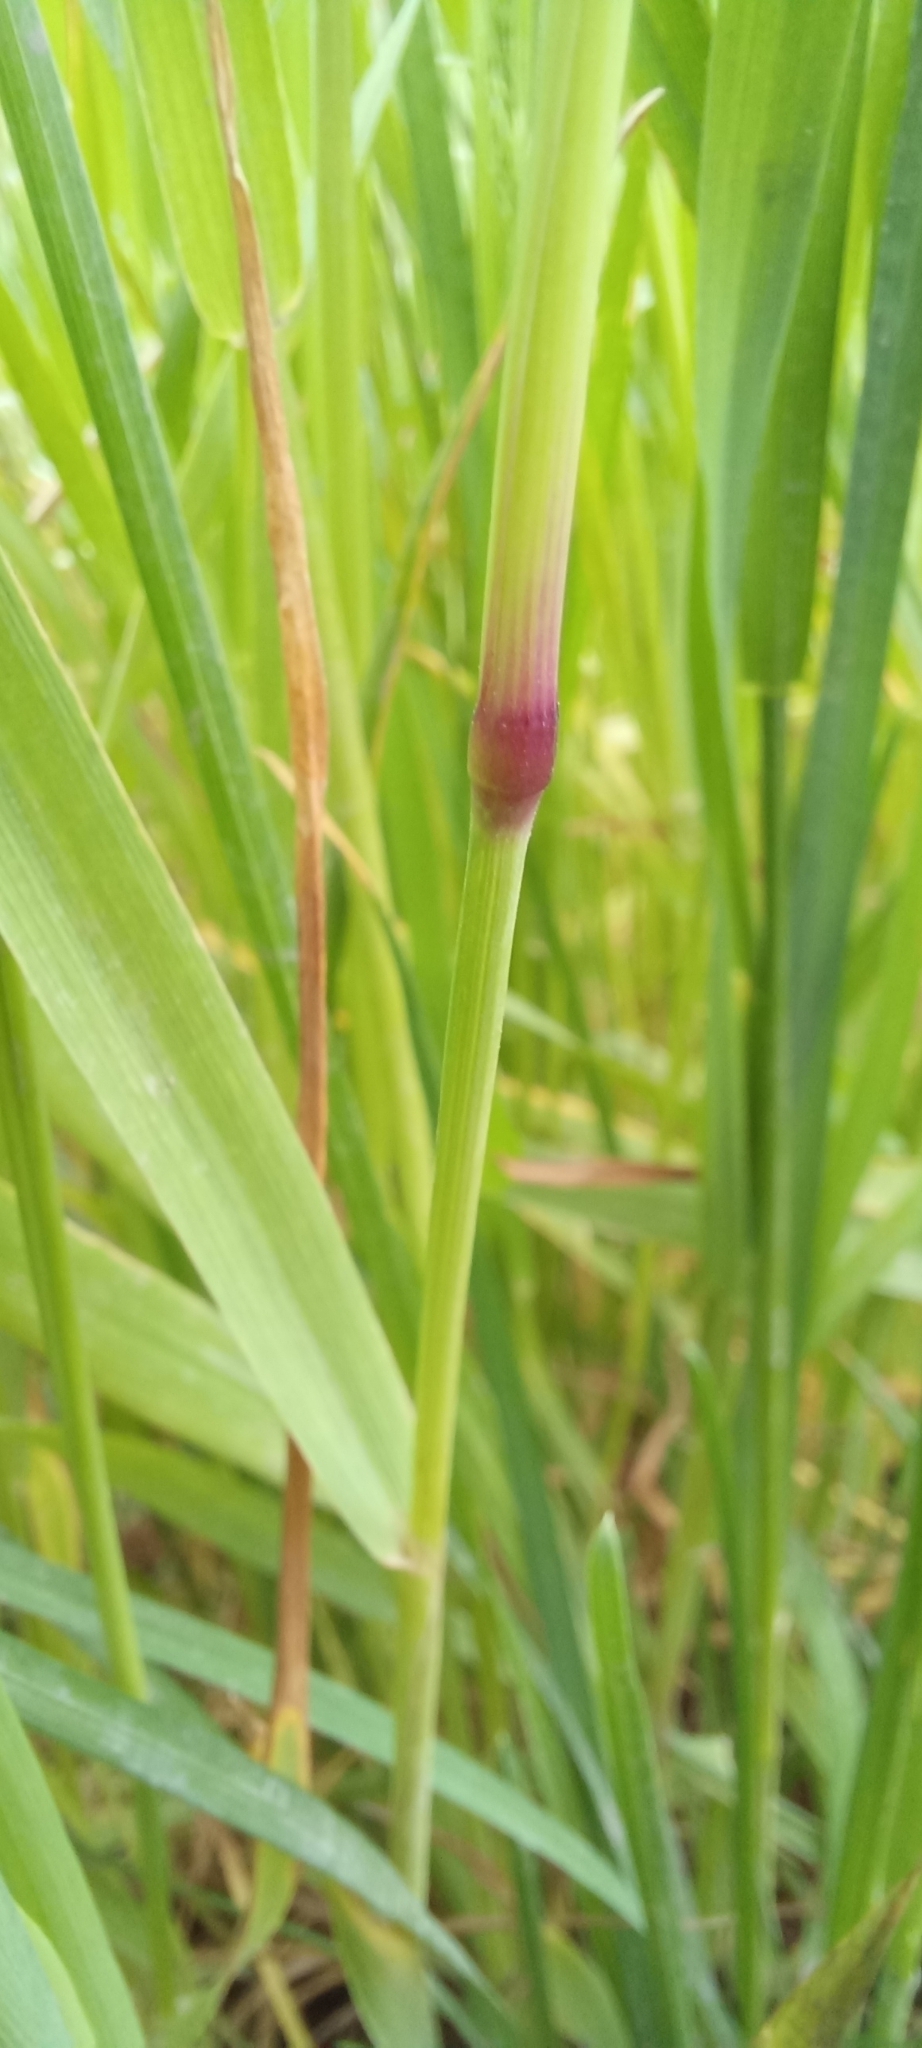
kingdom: Plantae
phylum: Tracheophyta
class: Liliopsida
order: Poales
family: Poaceae
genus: Alopecurus
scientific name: Alopecurus myosuroides
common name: Black-grass
